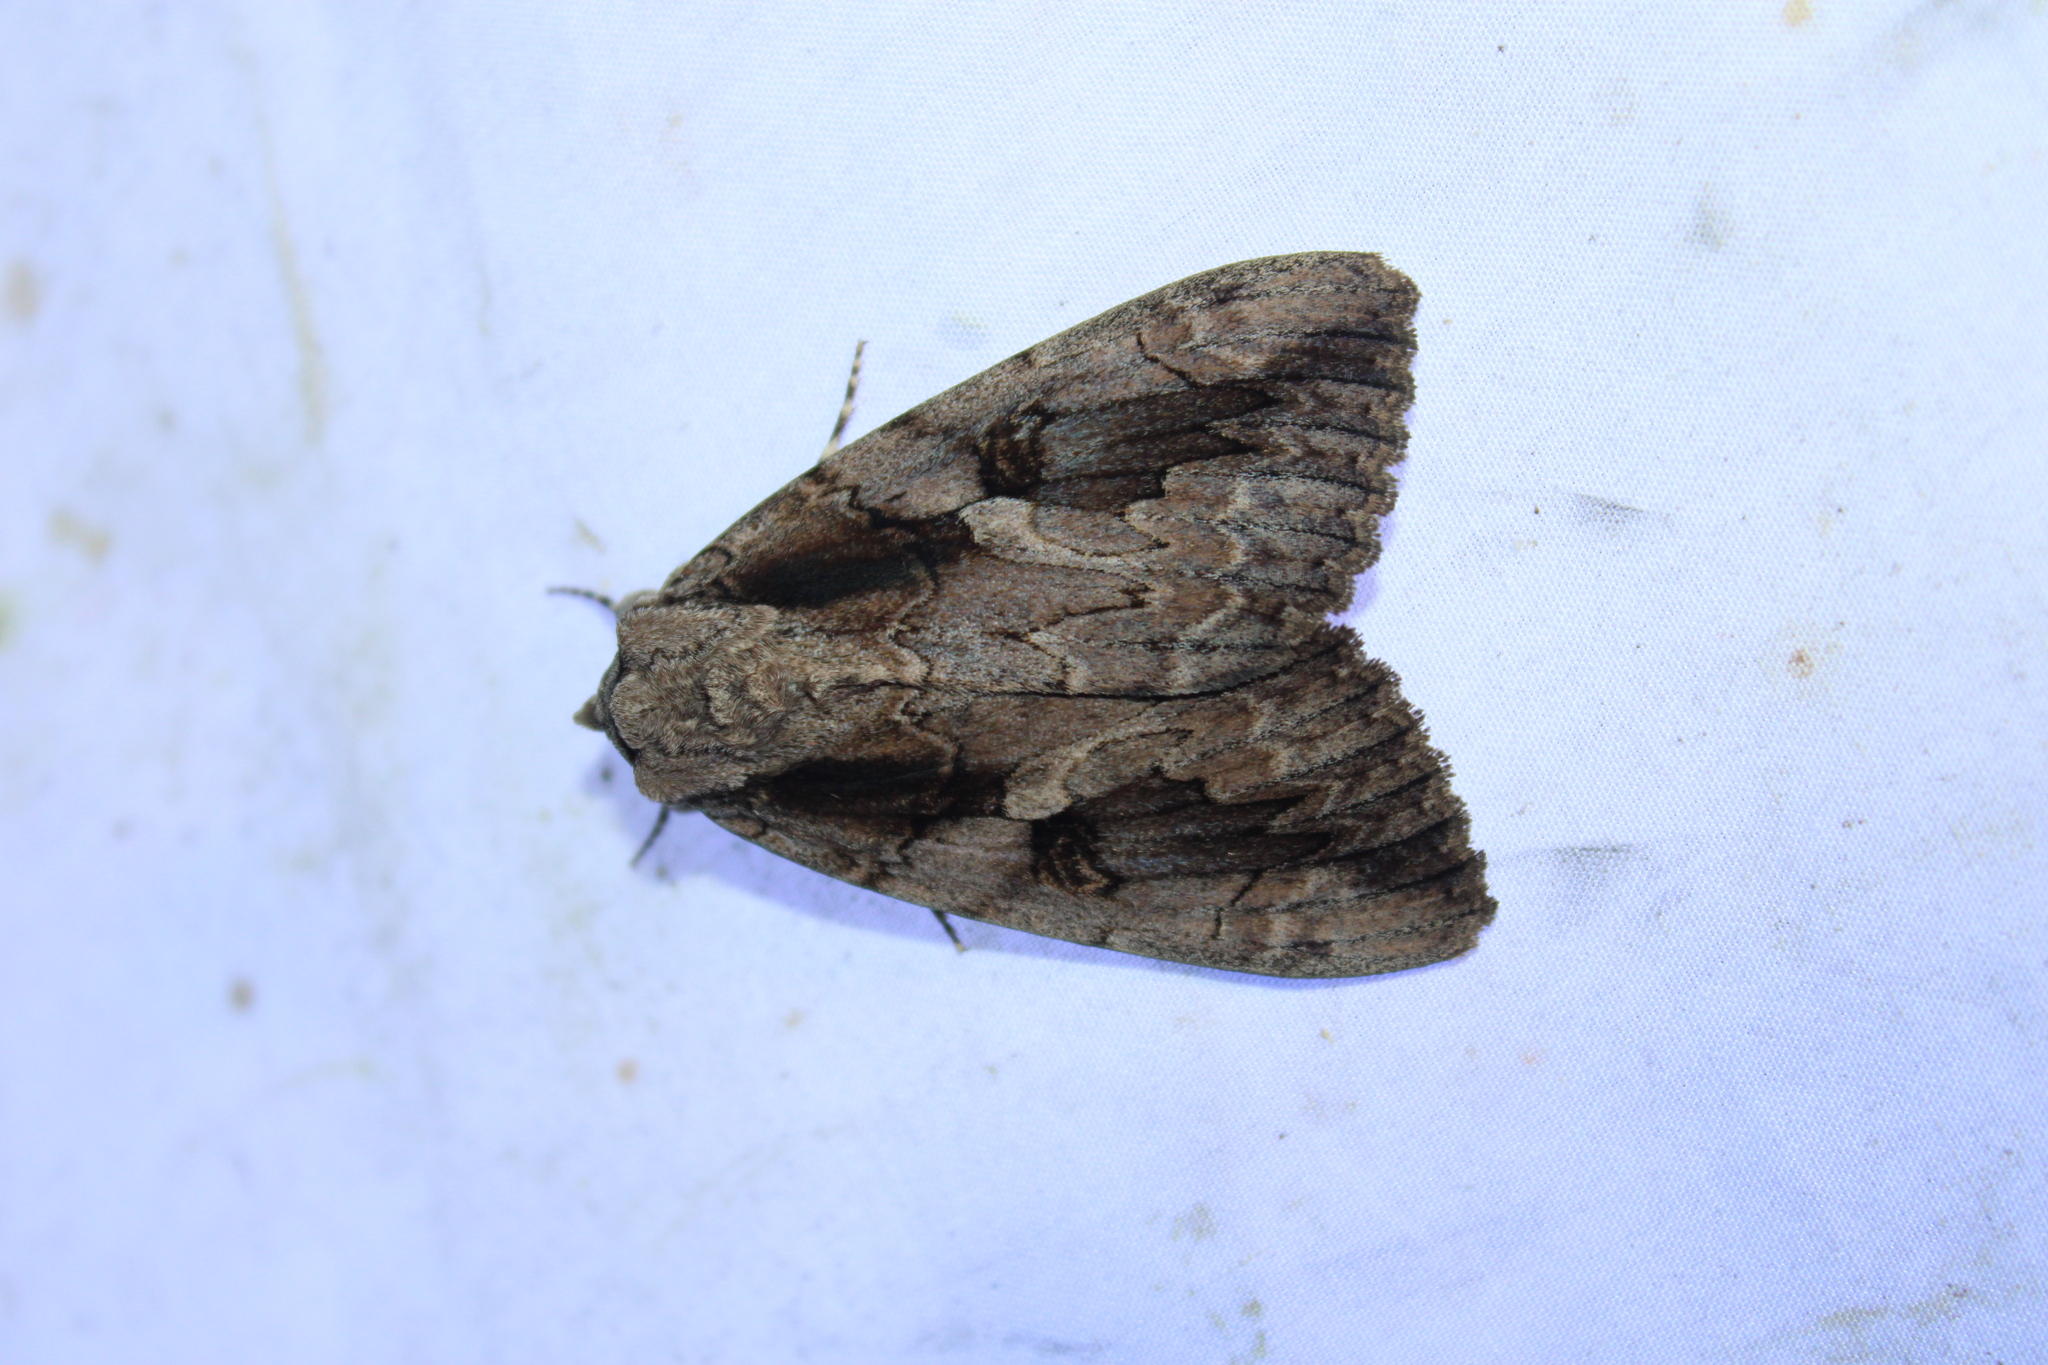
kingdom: Animalia
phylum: Arthropoda
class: Insecta
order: Lepidoptera
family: Erebidae
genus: Catocala
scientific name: Catocala amatrix
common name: Sweetheart underwing
